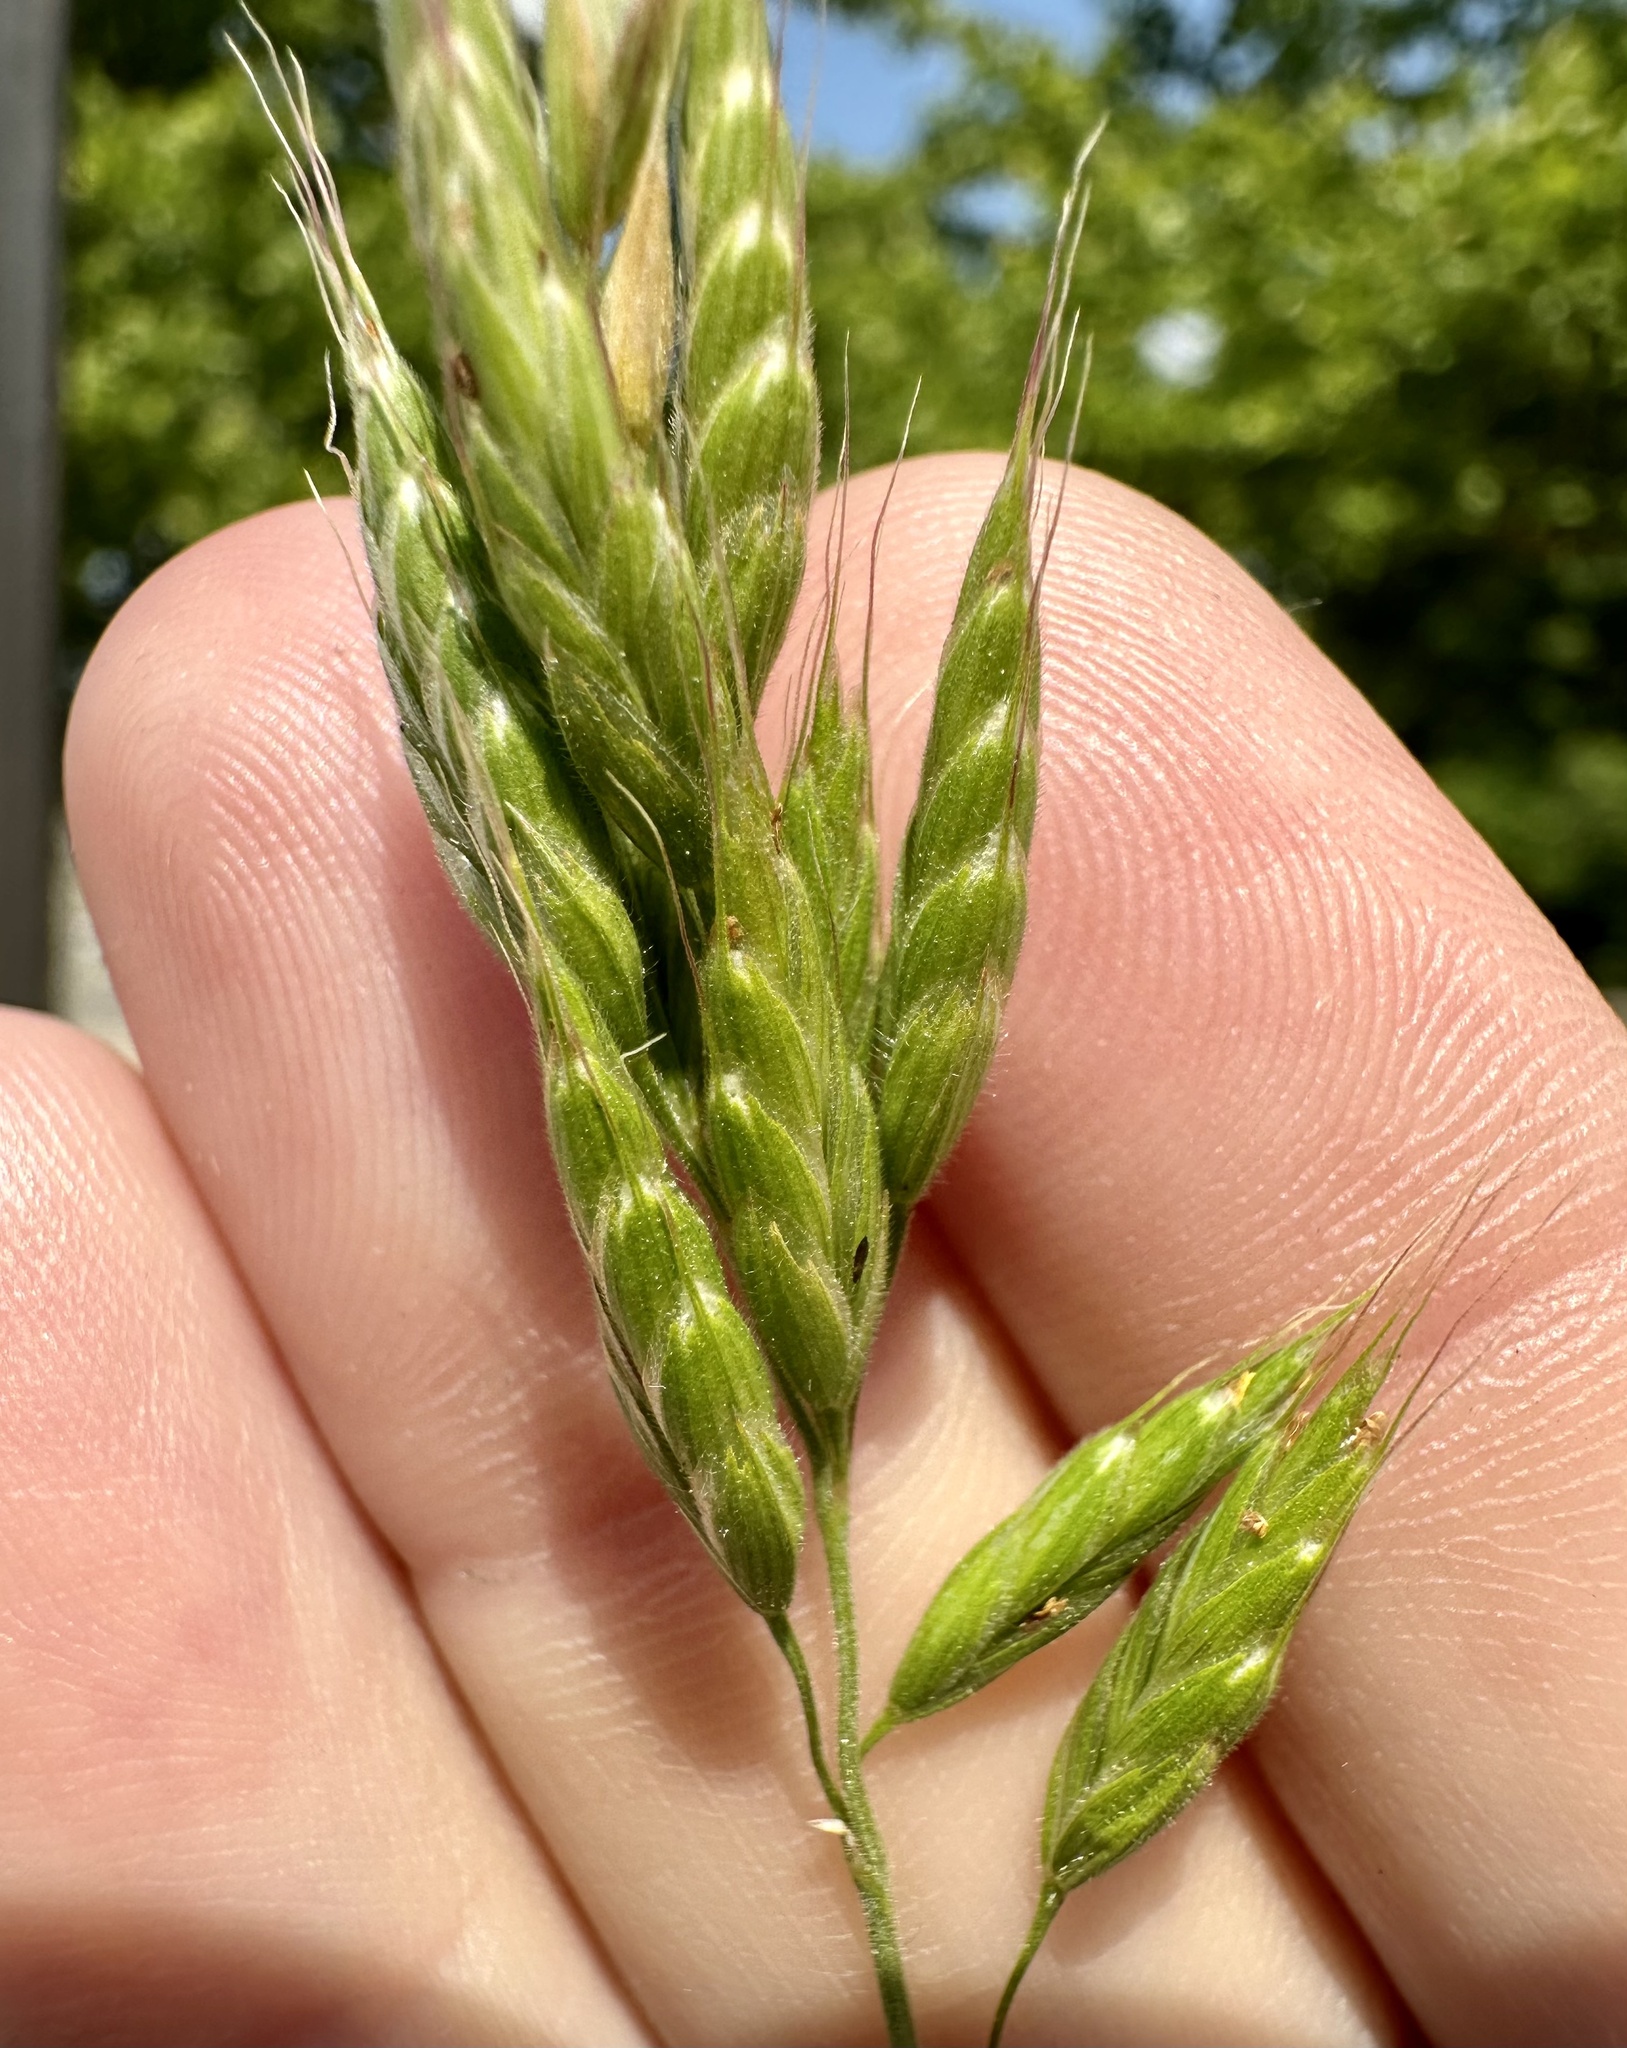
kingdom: Plantae
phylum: Tracheophyta
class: Liliopsida
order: Poales
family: Poaceae
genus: Bromus
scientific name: Bromus hordeaceus
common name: Soft brome
